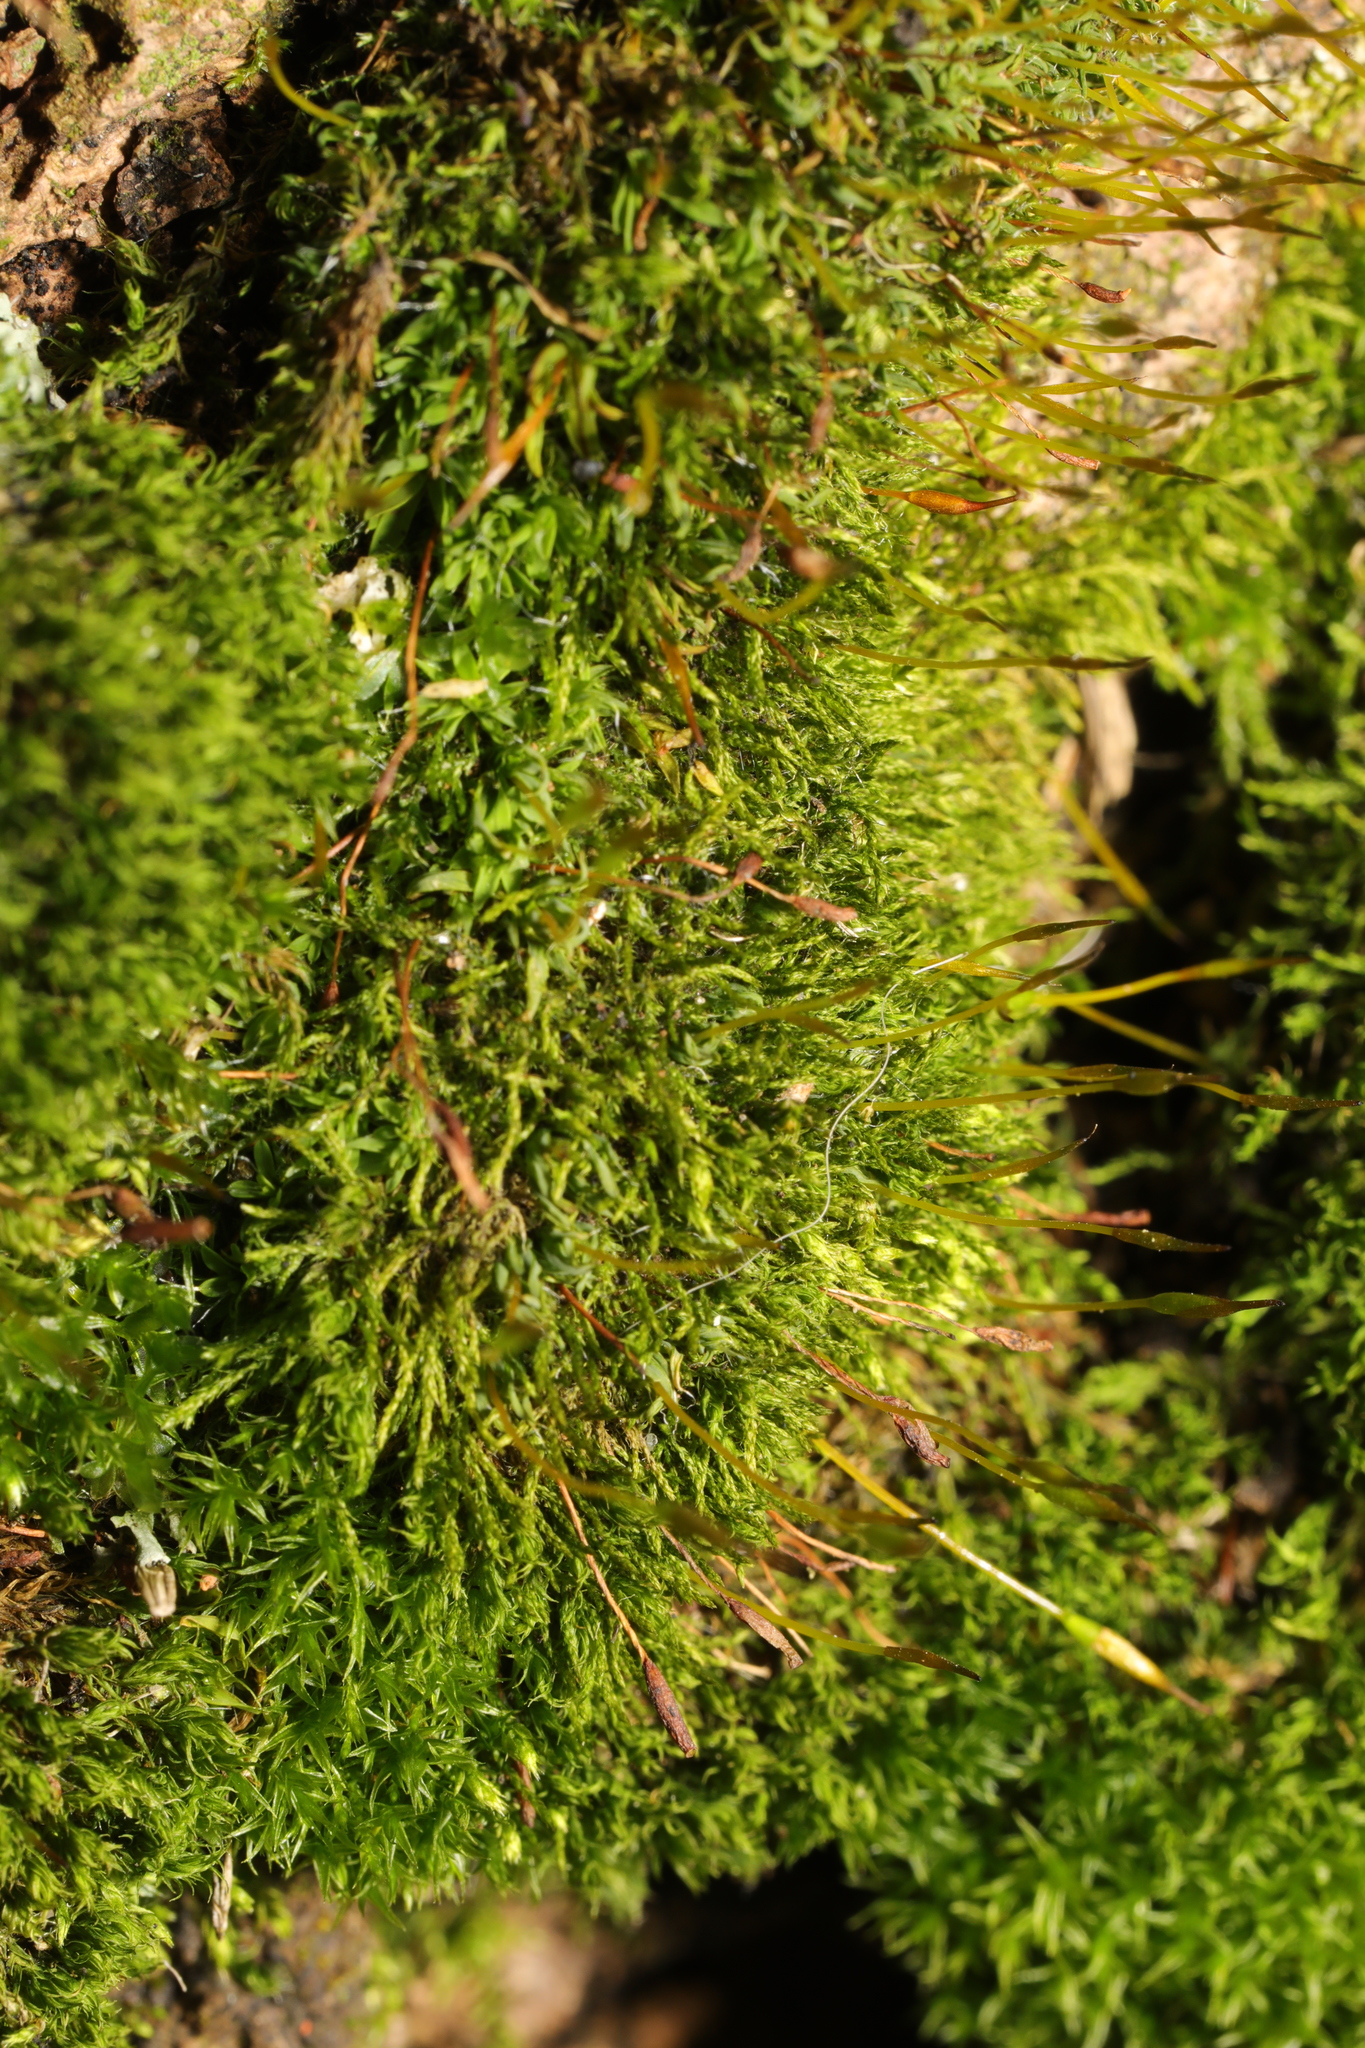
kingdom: Plantae
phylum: Bryophyta
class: Bryopsida
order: Pottiales
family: Pottiaceae
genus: Tortula
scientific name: Tortula muralis
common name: Wall screw-moss
